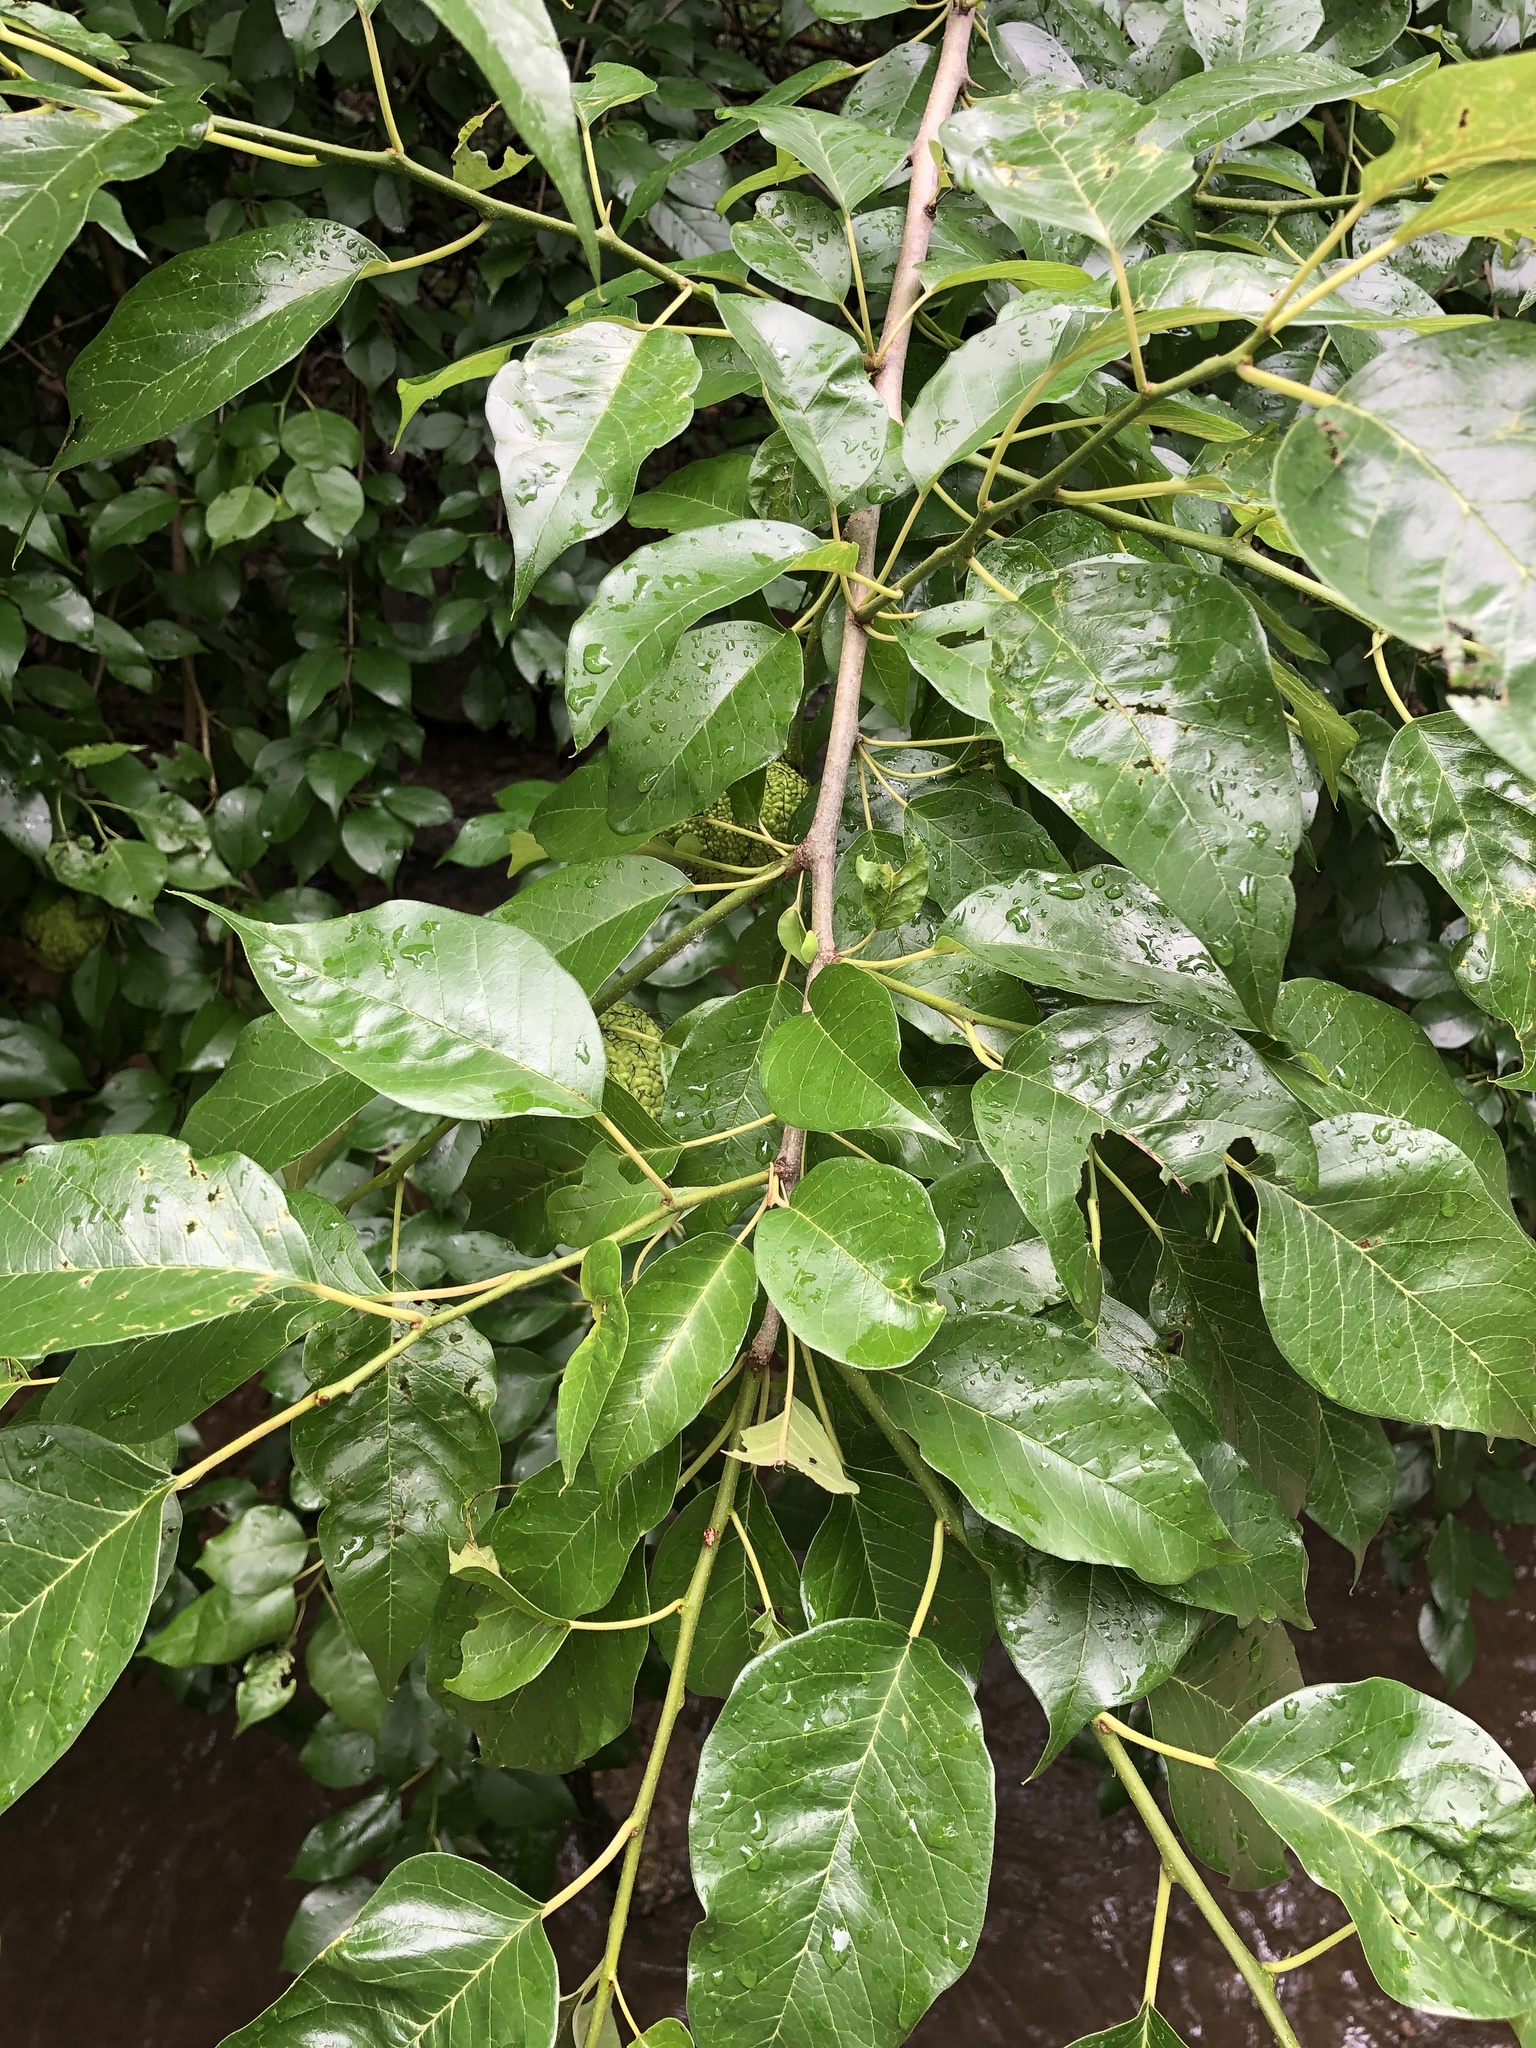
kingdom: Plantae
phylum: Tracheophyta
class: Magnoliopsida
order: Rosales
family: Moraceae
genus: Maclura
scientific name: Maclura pomifera
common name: Osage-orange
